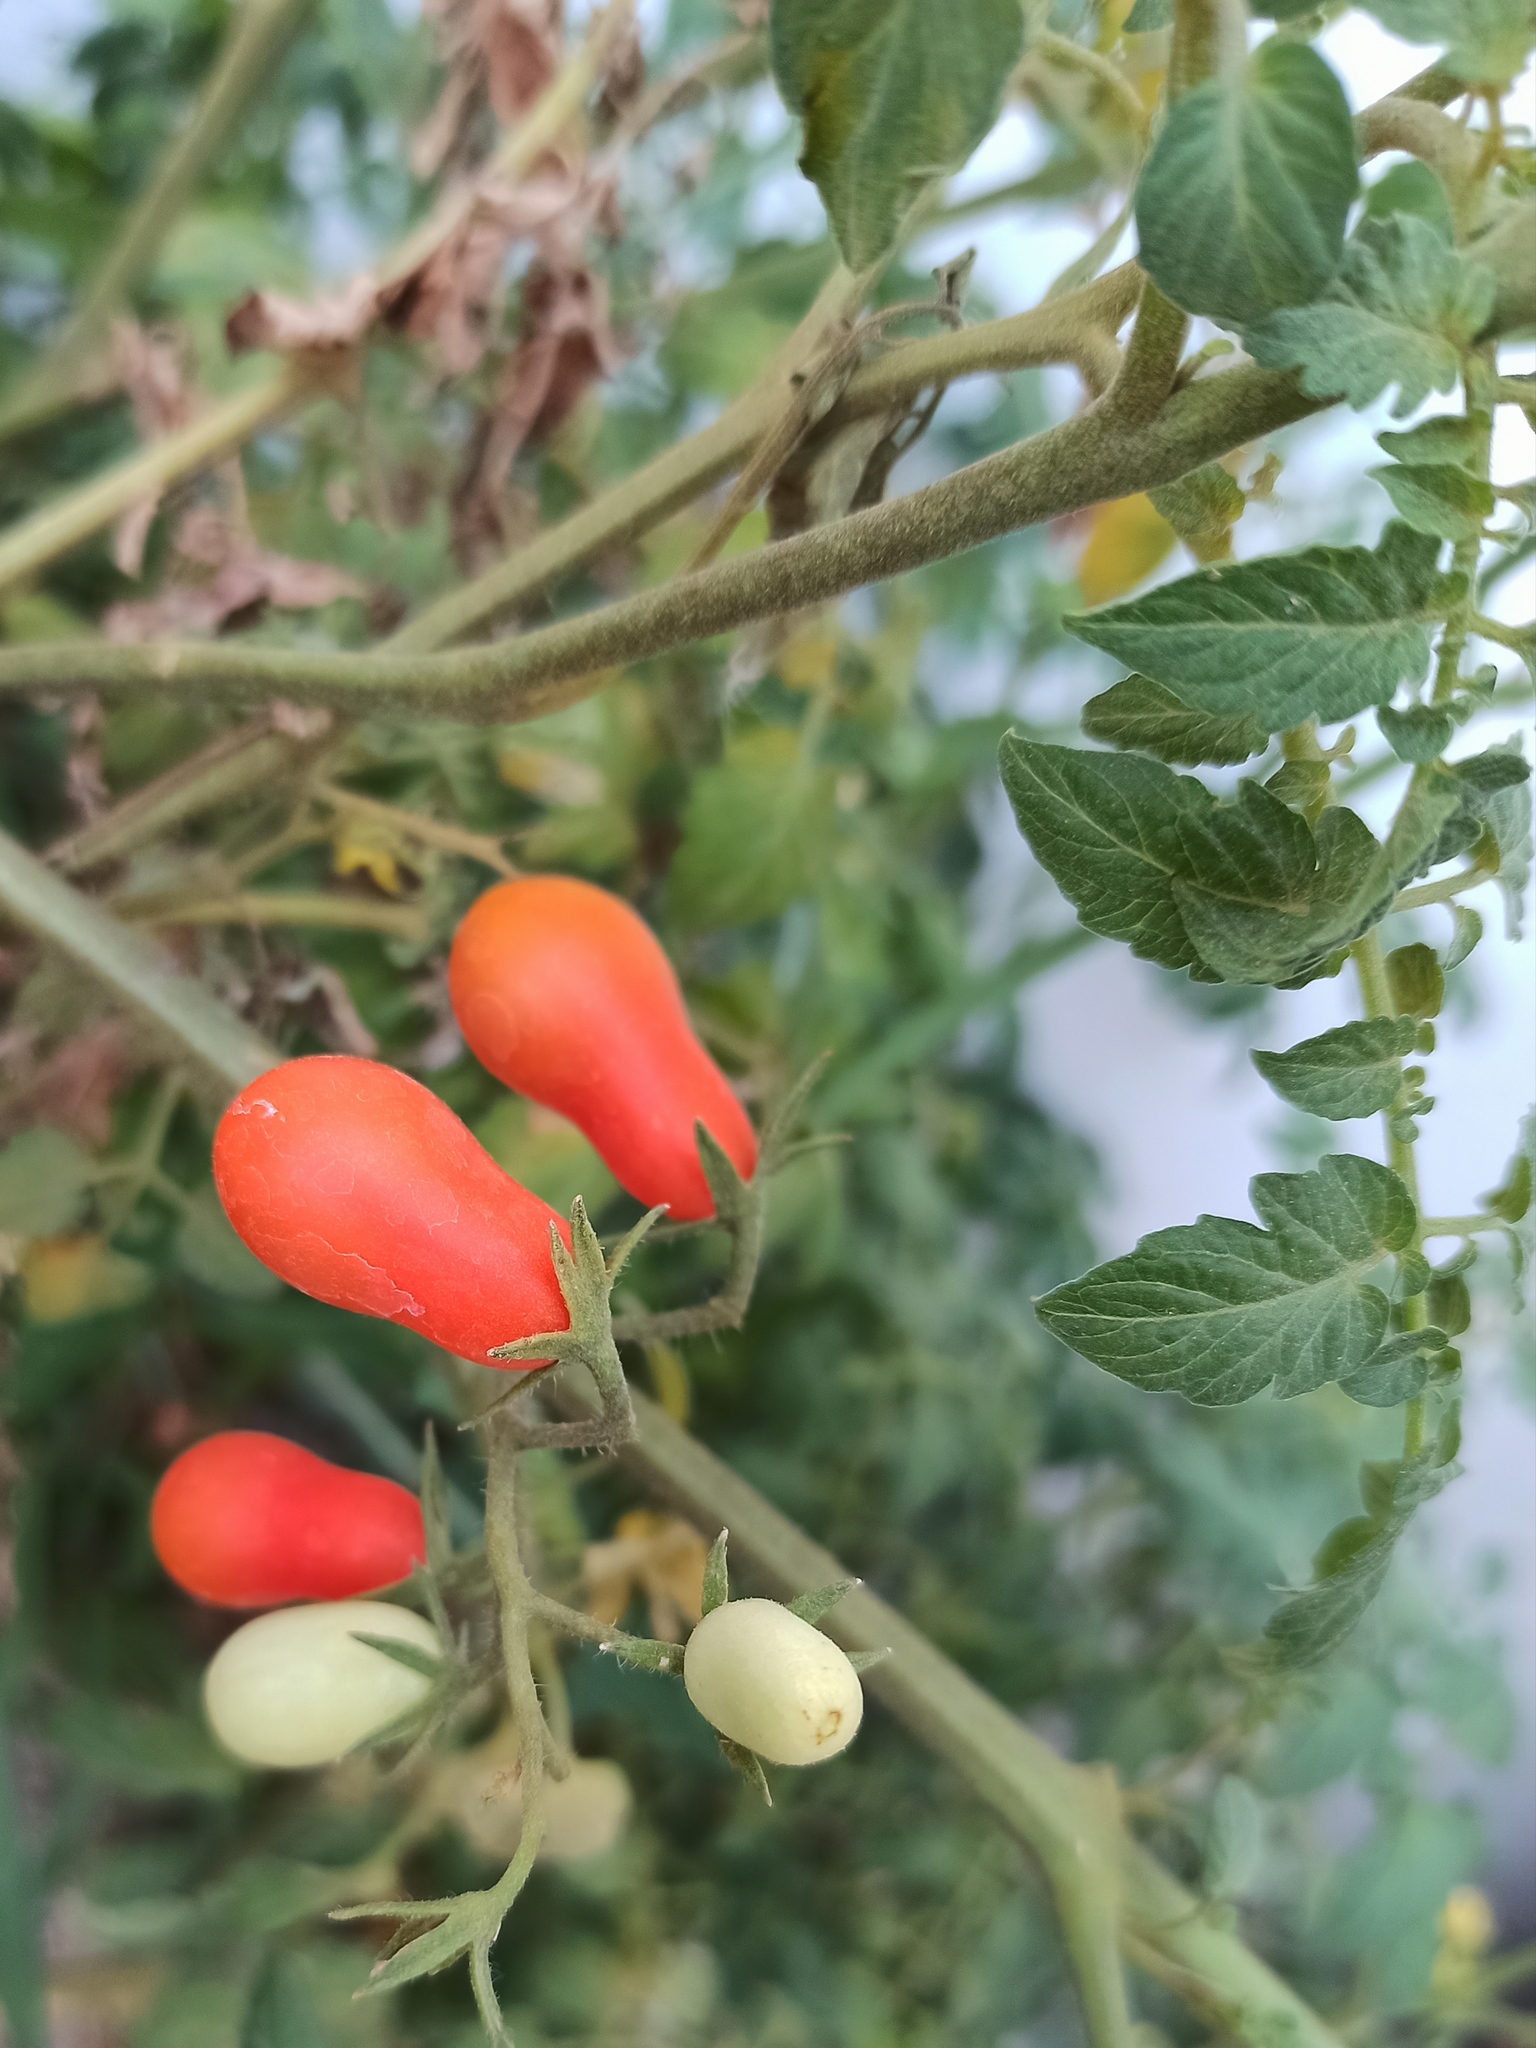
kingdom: Plantae
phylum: Tracheophyta
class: Magnoliopsida
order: Solanales
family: Solanaceae
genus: Solanum
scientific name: Solanum lycopersicum
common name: Garden tomato
